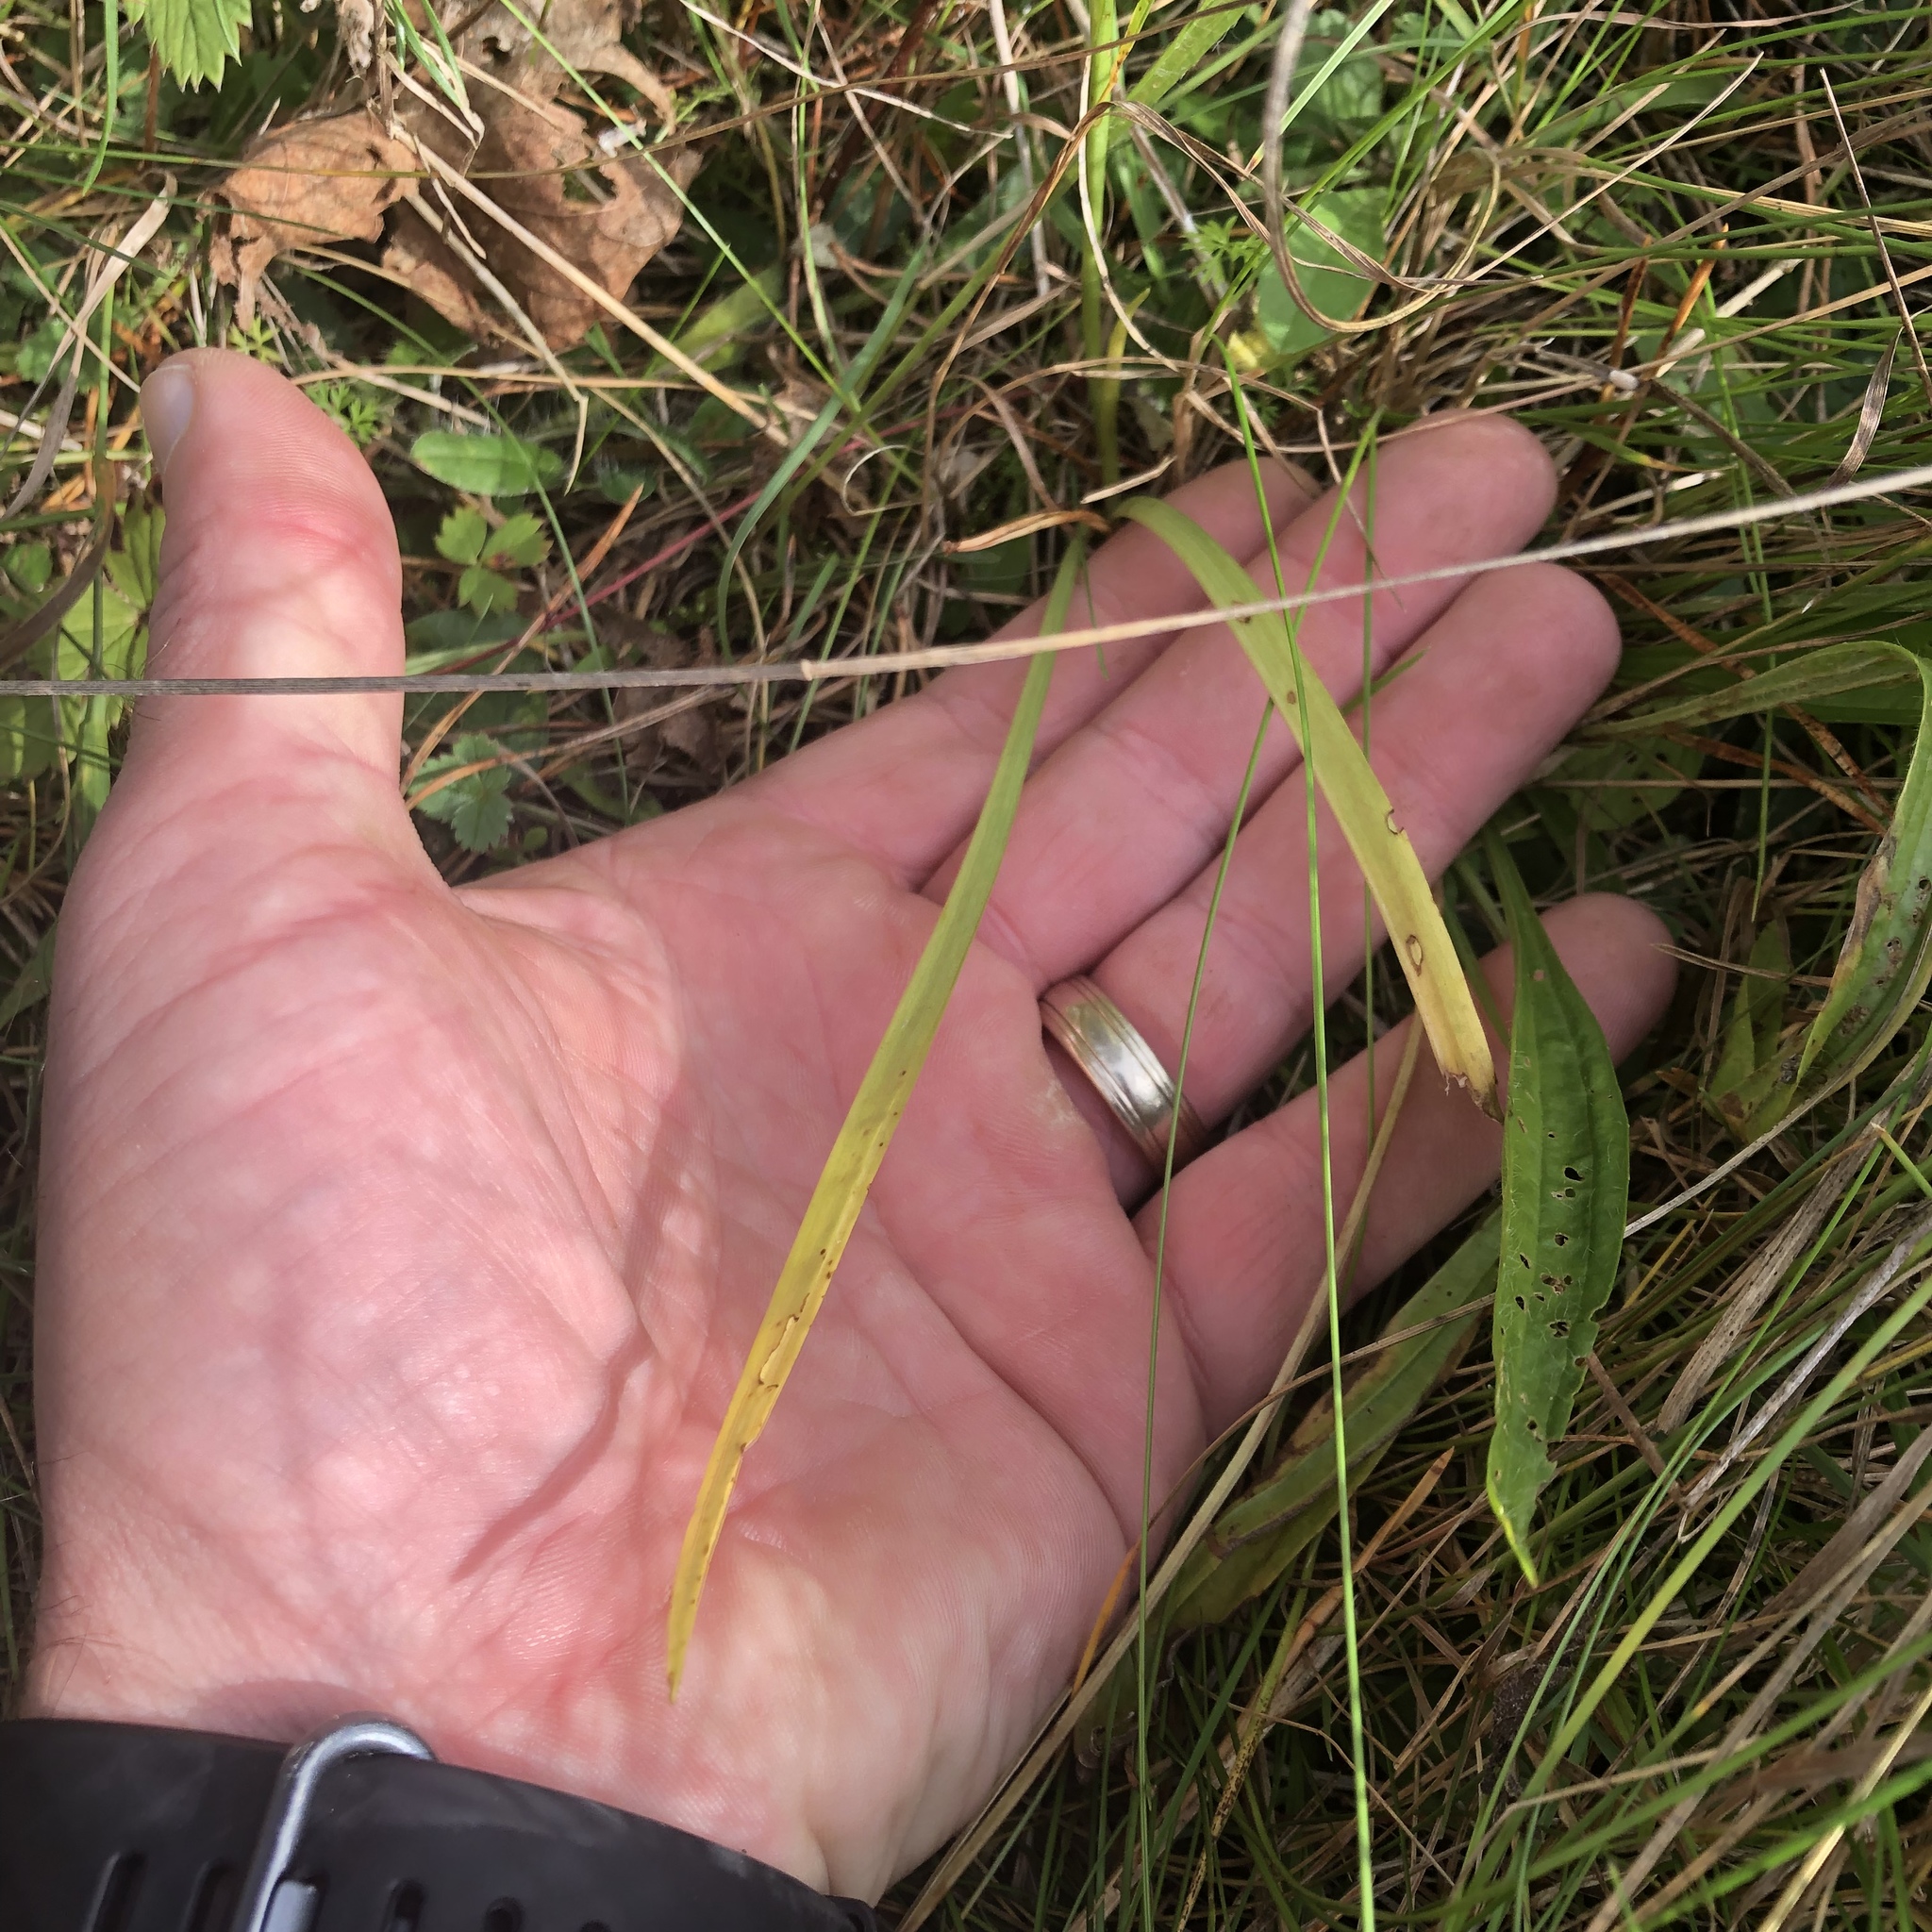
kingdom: Plantae
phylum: Tracheophyta
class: Liliopsida
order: Asparagales
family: Orchidaceae
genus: Spiranthes
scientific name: Spiranthes incurva
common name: Sphinx ladies'-tresses
